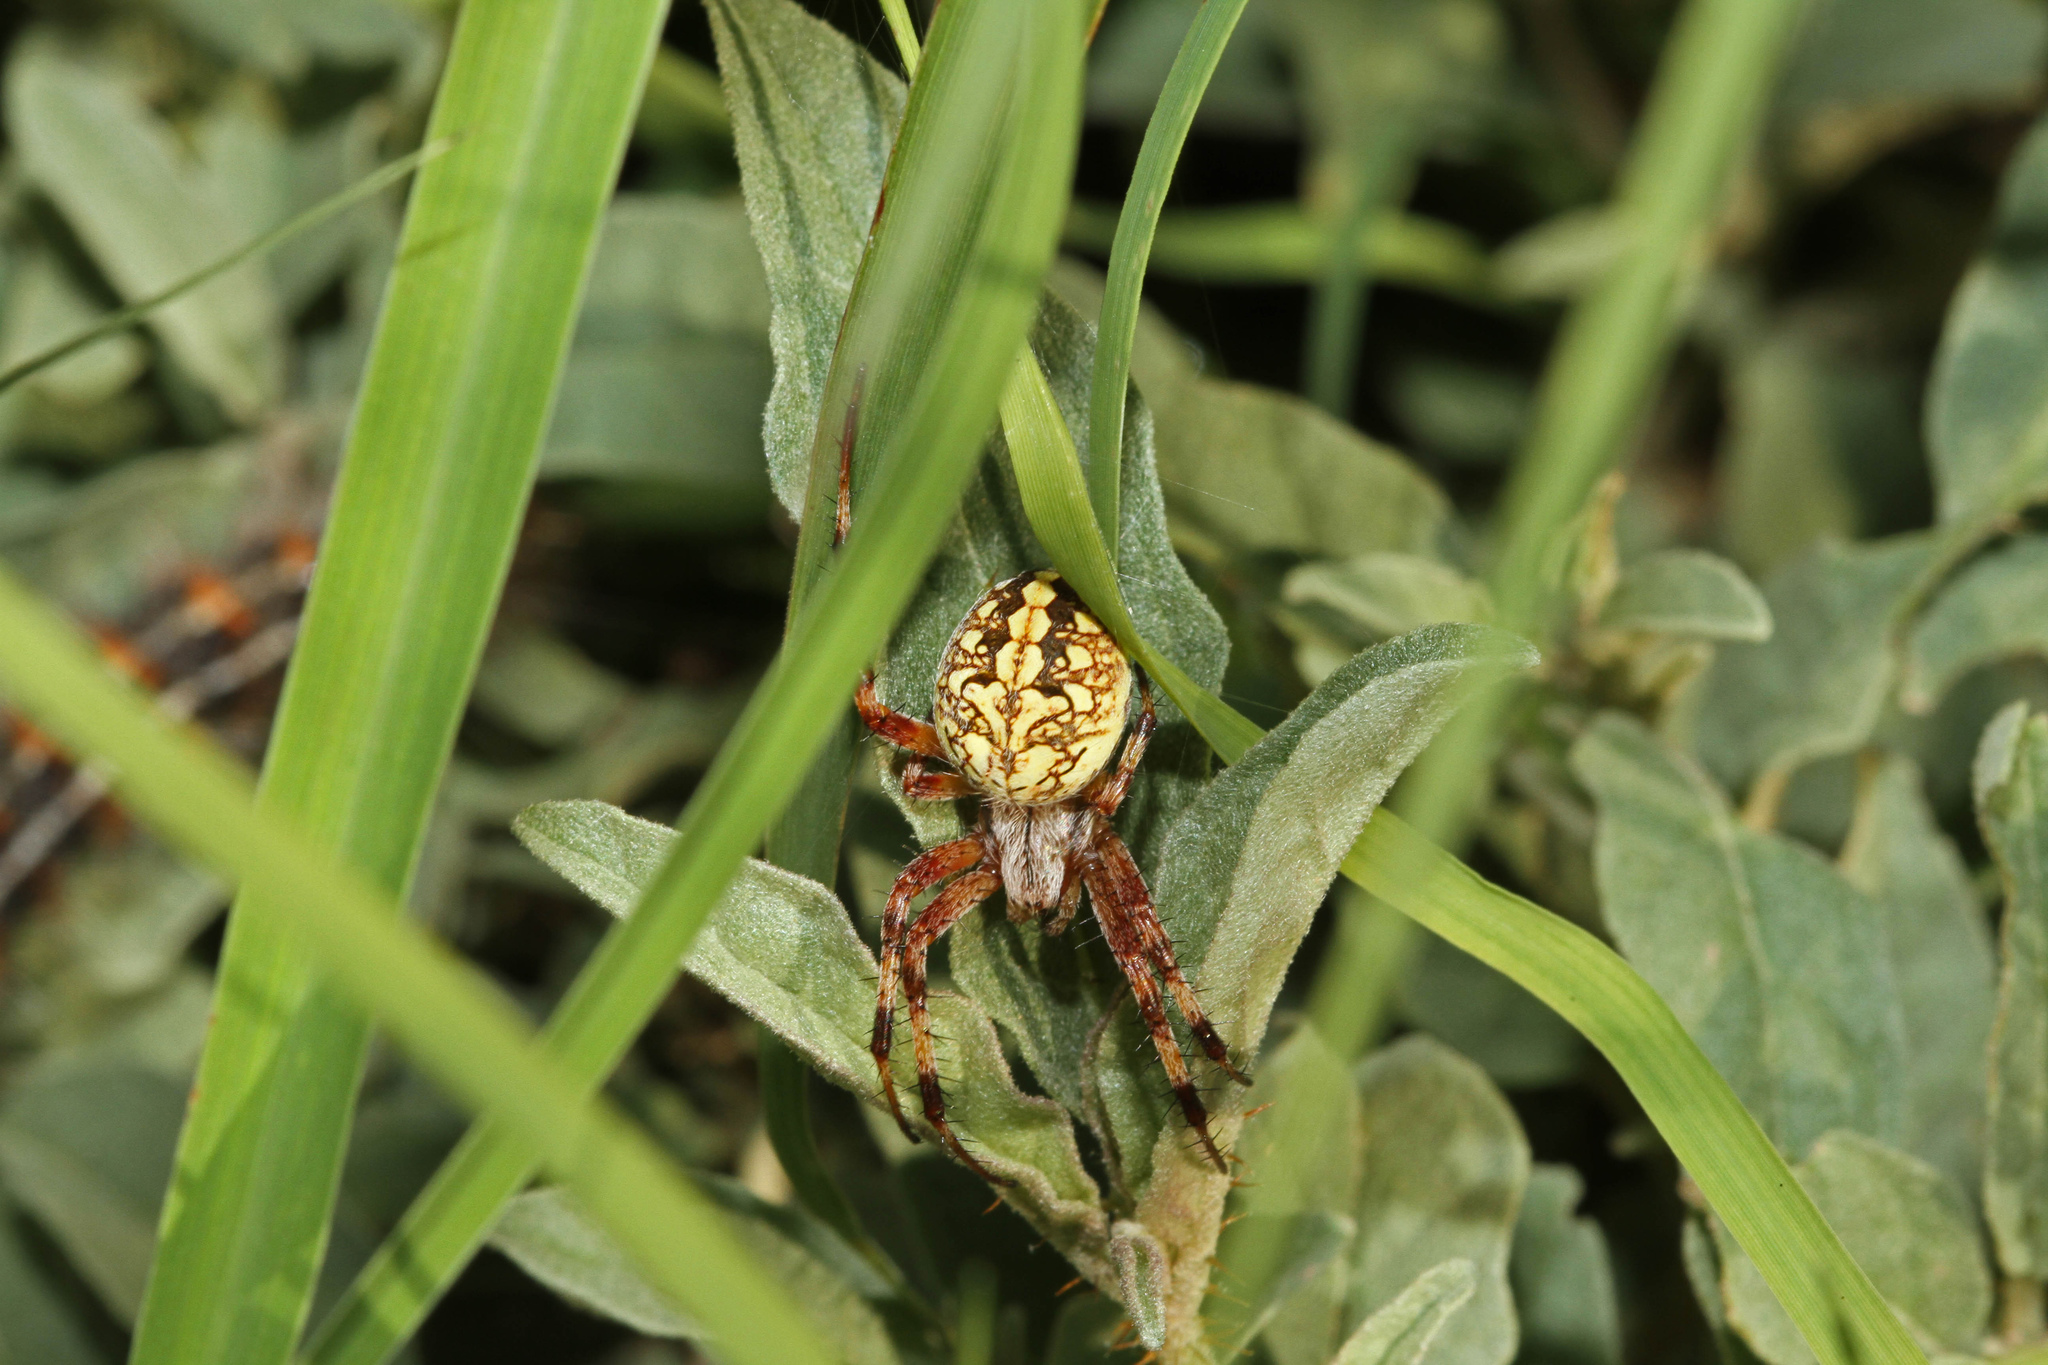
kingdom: Animalia
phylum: Arthropoda
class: Arachnida
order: Araneae
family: Araneidae
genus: Neoscona
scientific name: Neoscona oaxacensis
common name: Orb weavers
